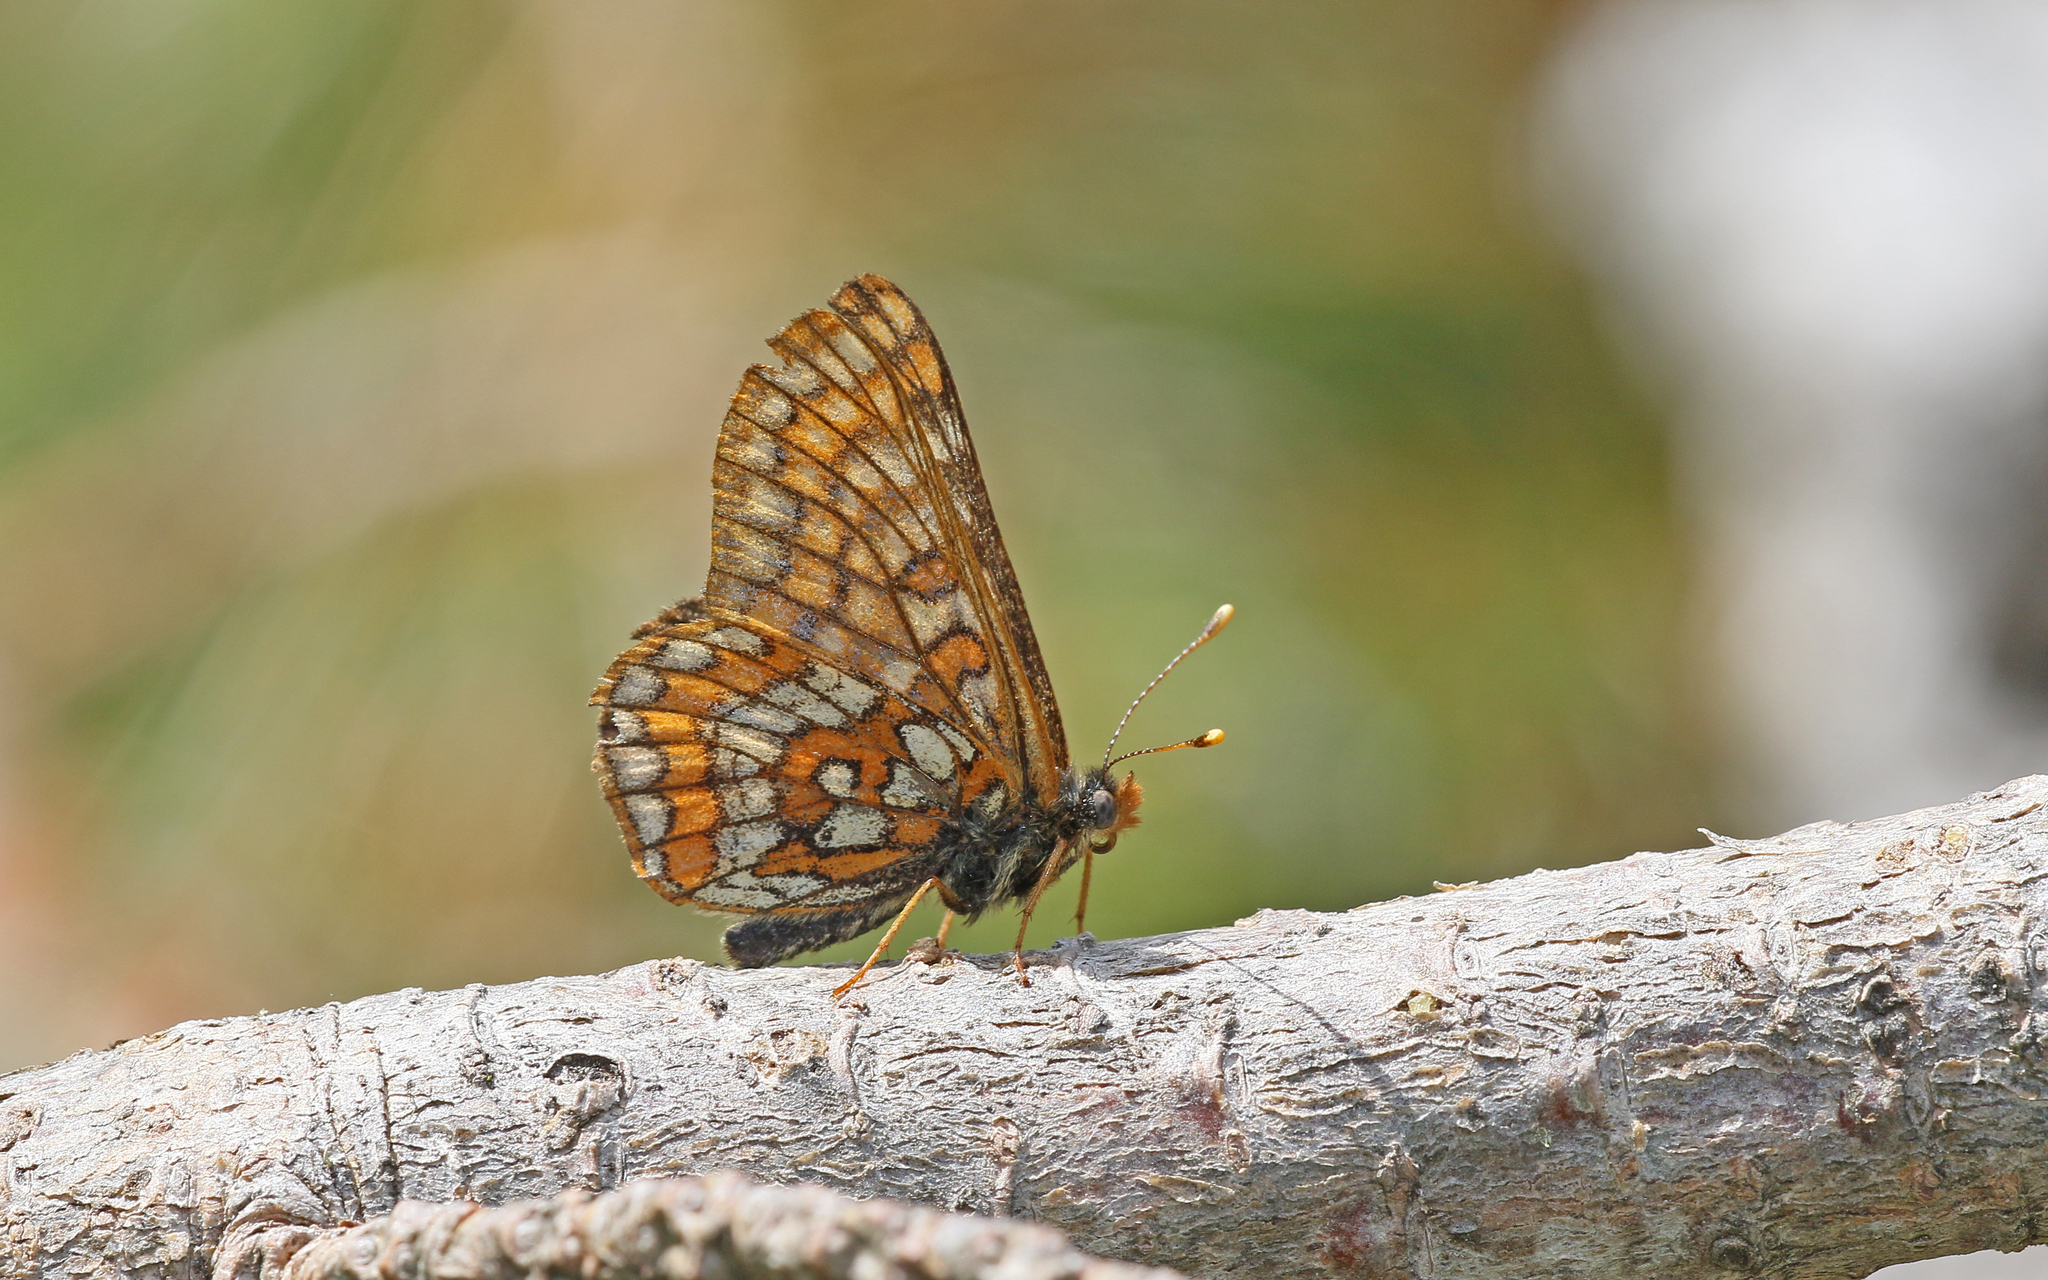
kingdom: Animalia
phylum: Arthropoda
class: Insecta
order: Lepidoptera
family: Nymphalidae
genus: Hypodryas
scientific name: Hypodryas intermedia
